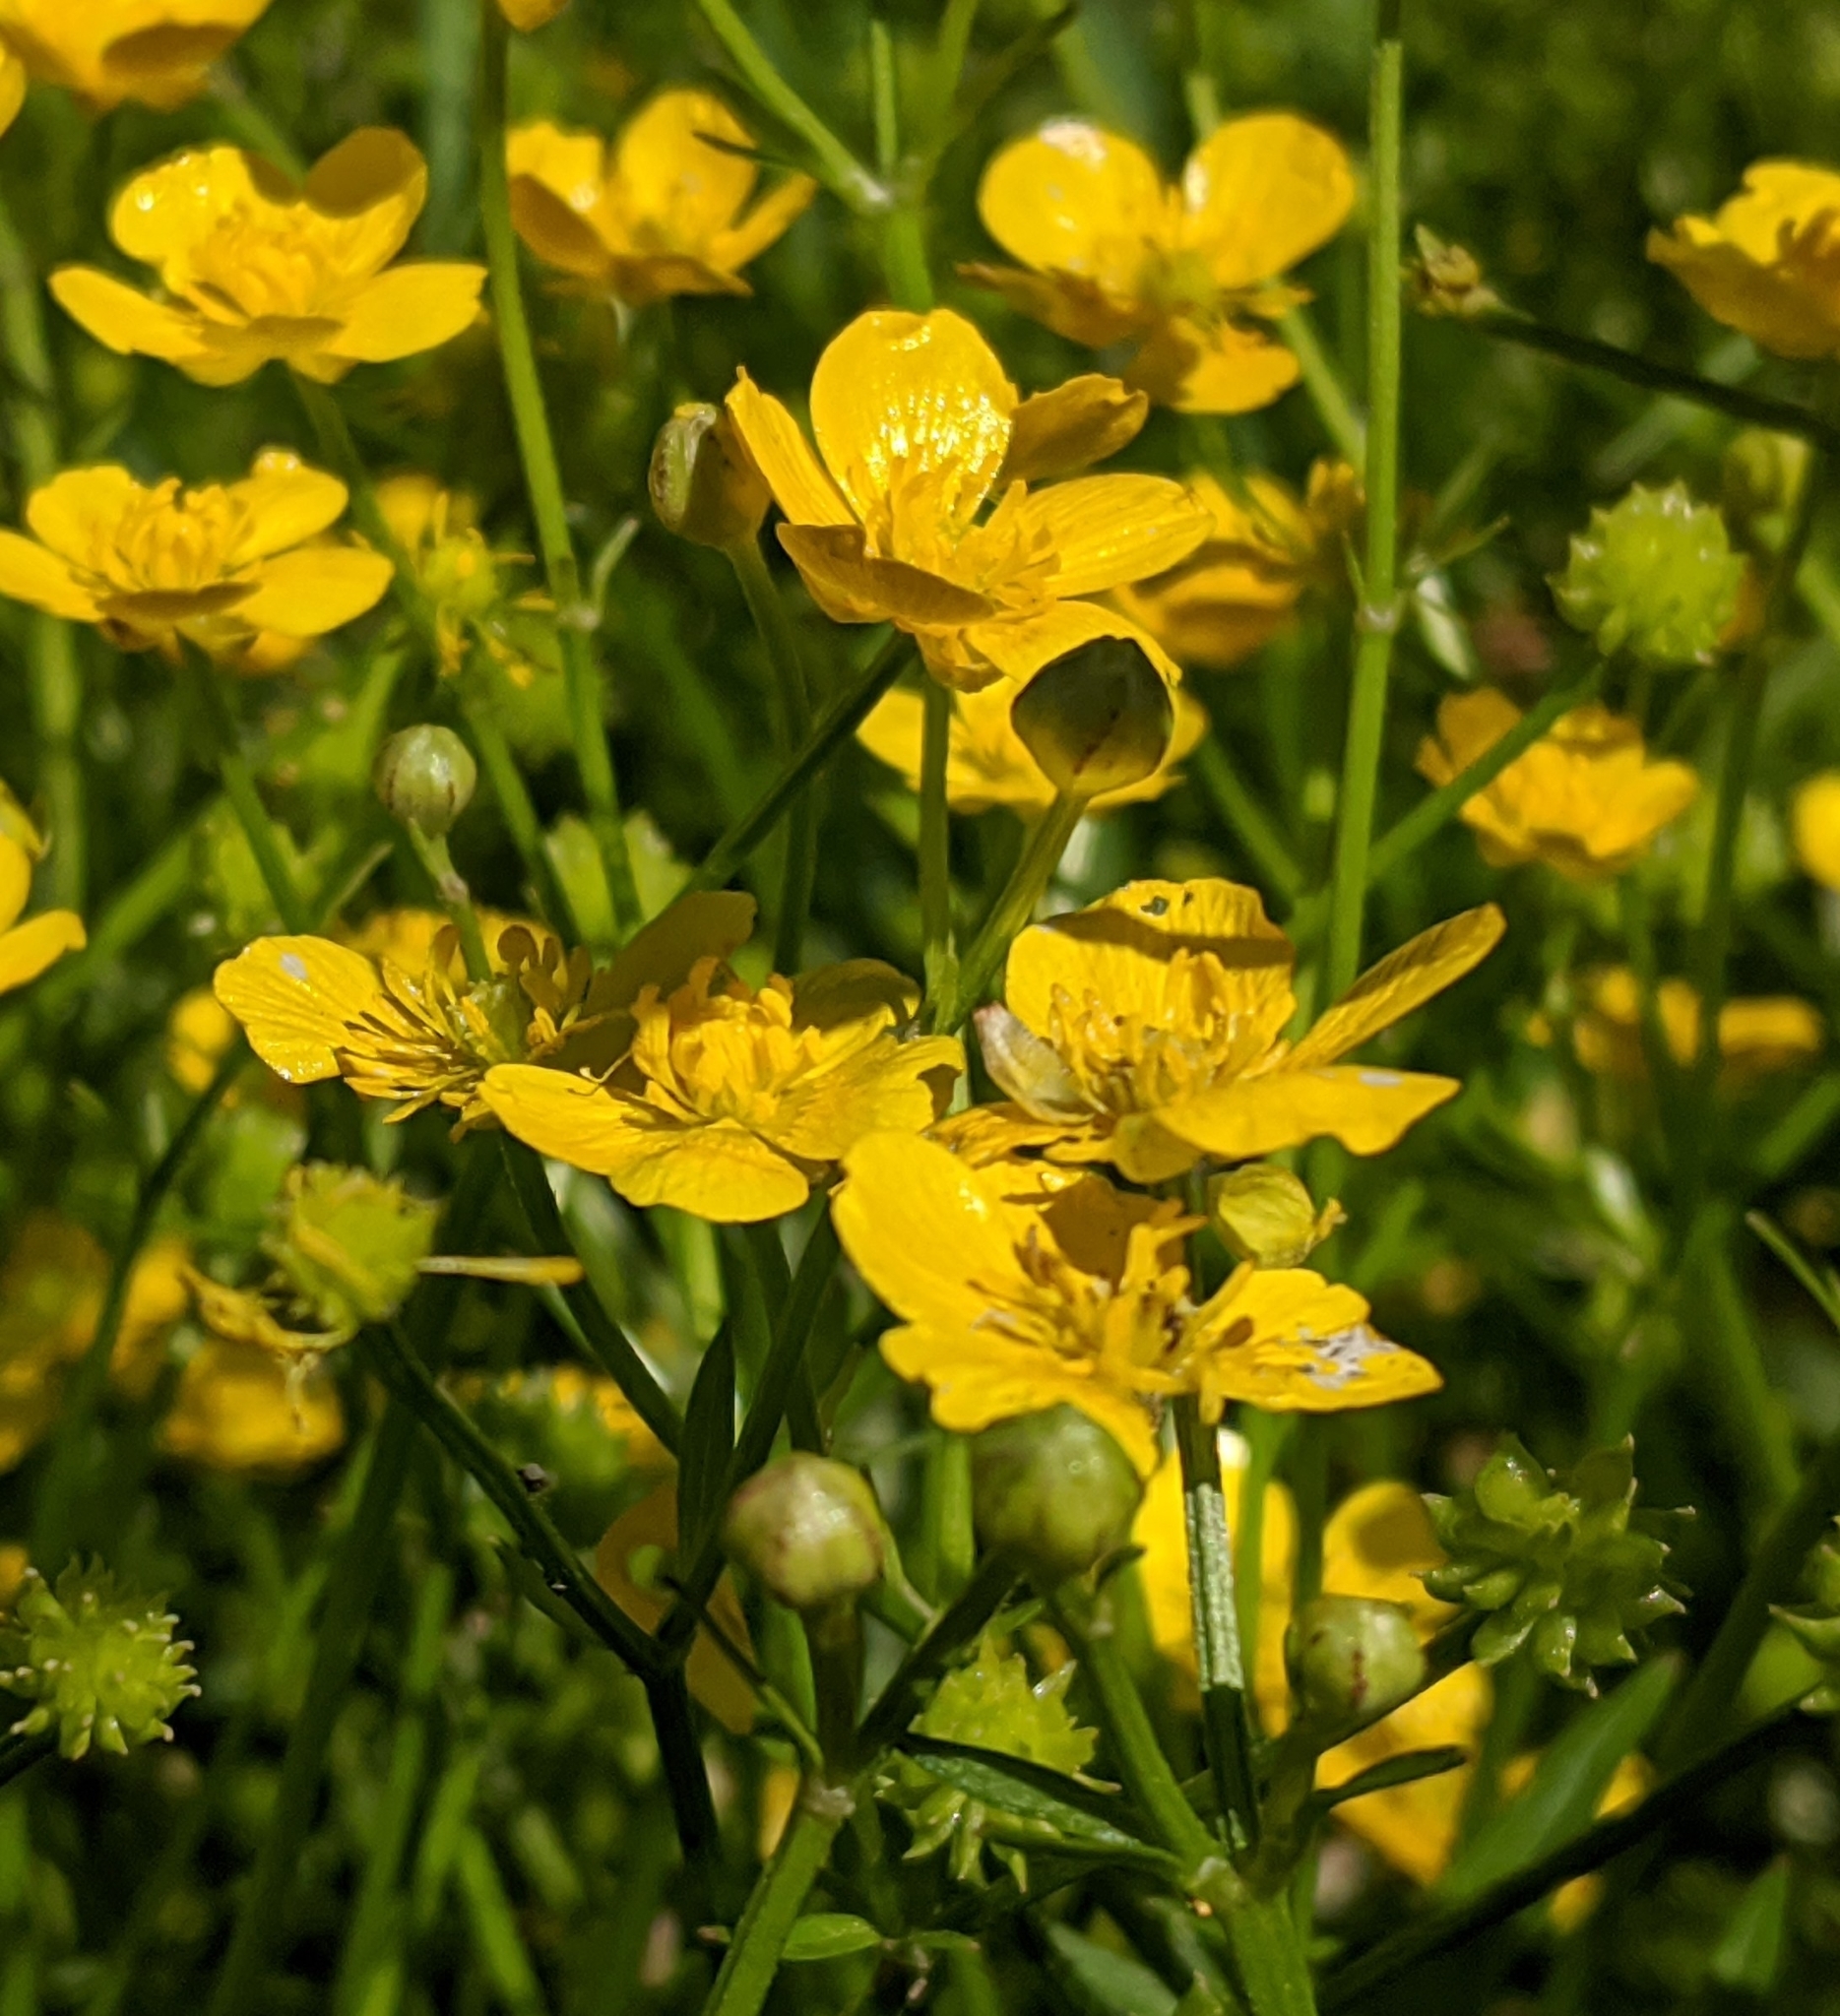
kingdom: Plantae
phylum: Tracheophyta
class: Magnoliopsida
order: Ranunculales
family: Ranunculaceae
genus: Ranunculus
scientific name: Ranunculus repens
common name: Creeping buttercup
